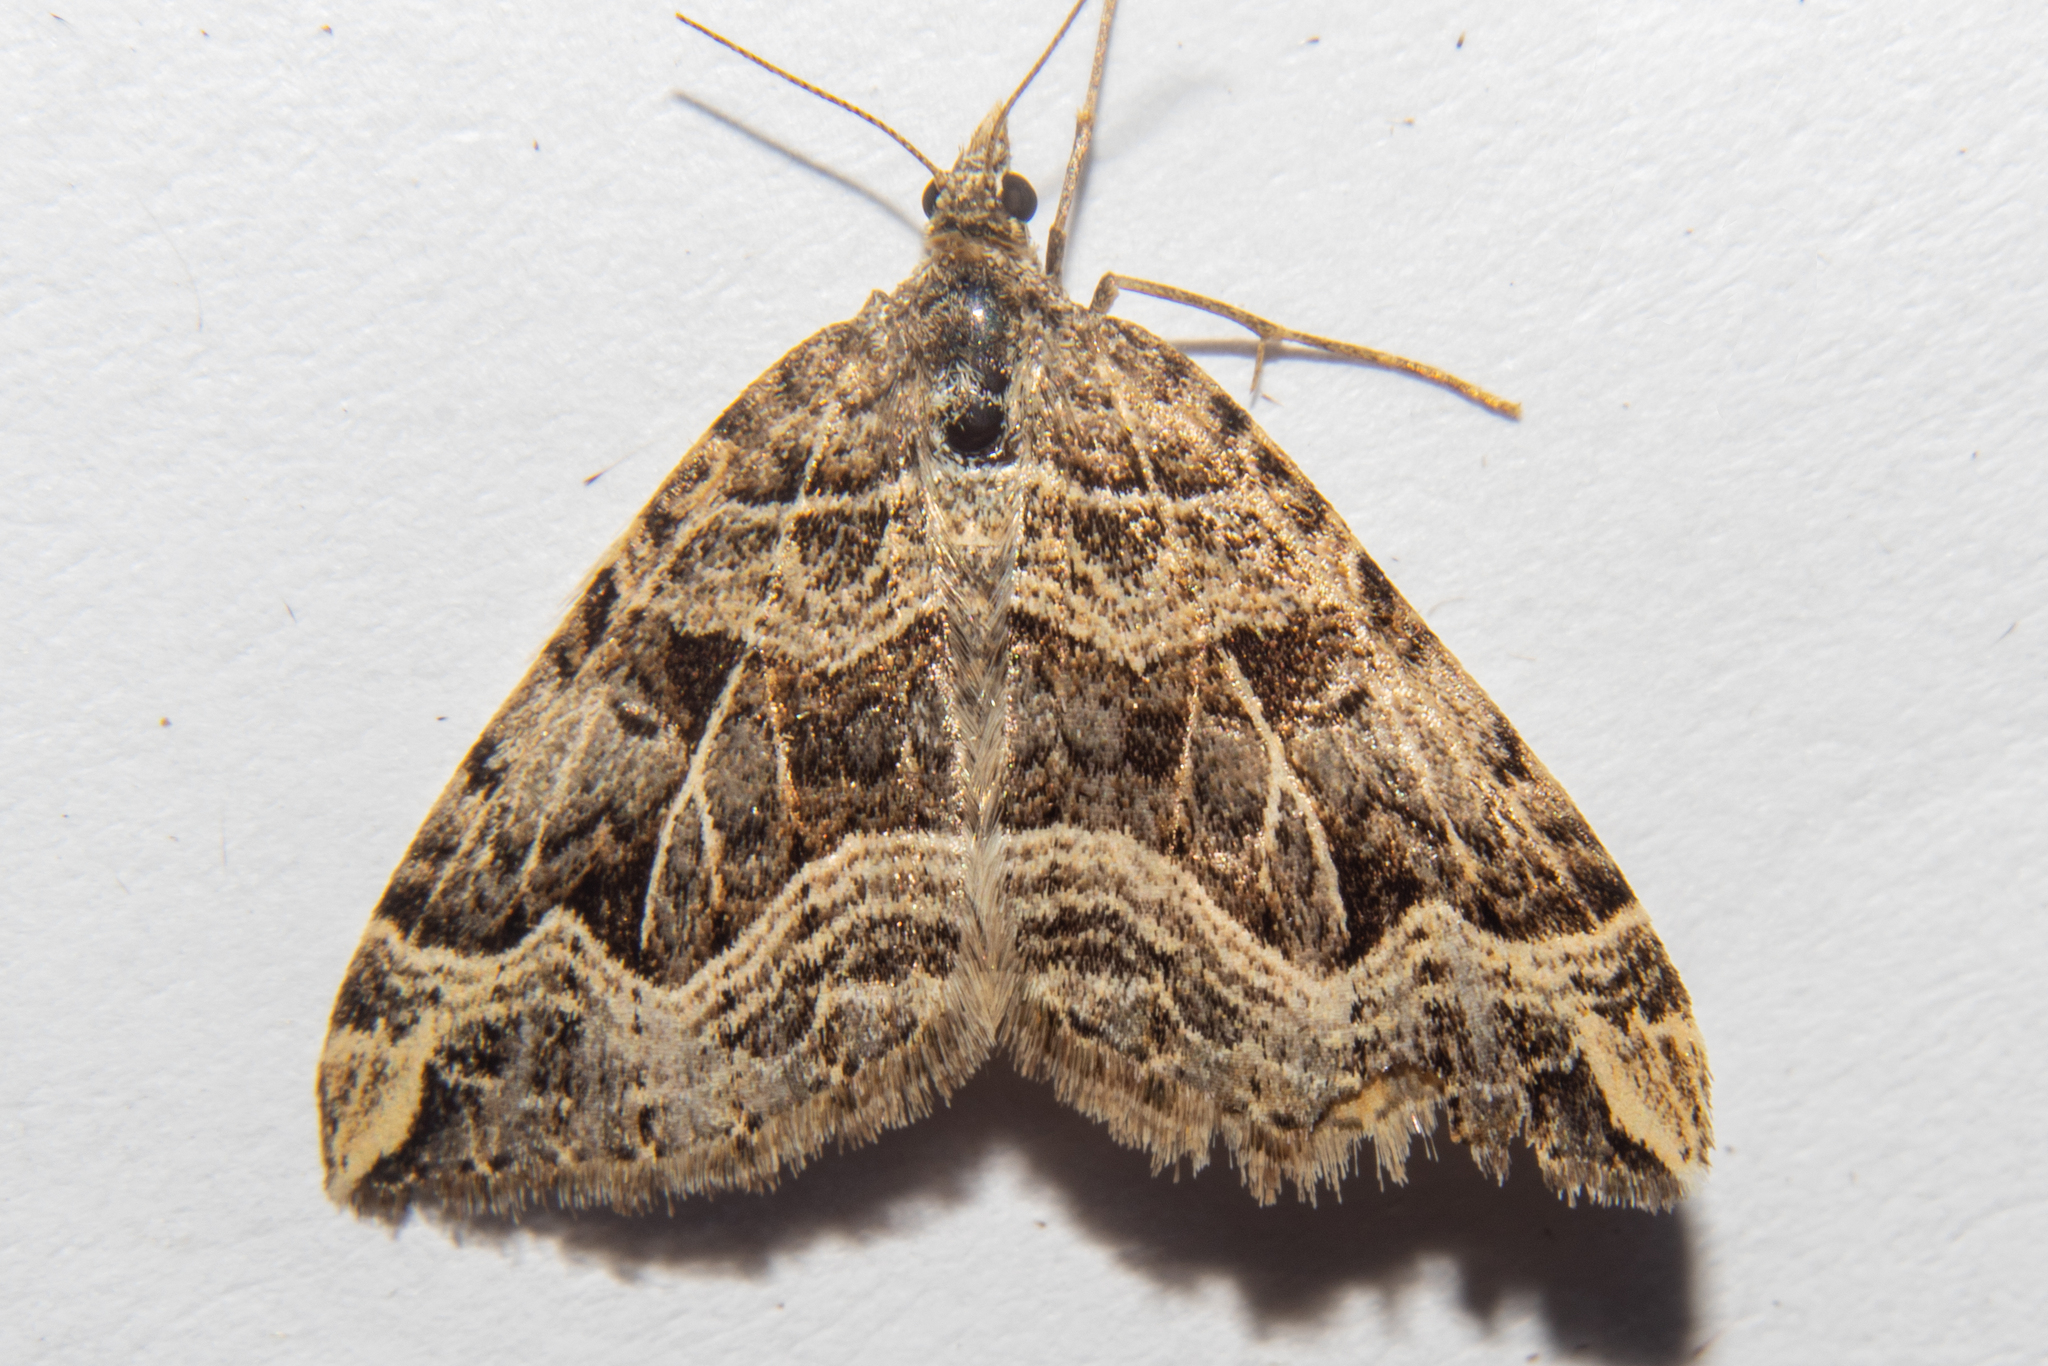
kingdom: Animalia
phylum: Arthropoda
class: Insecta
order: Lepidoptera
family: Geometridae
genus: Xanthorhoe
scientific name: Xanthorhoe semifissata
